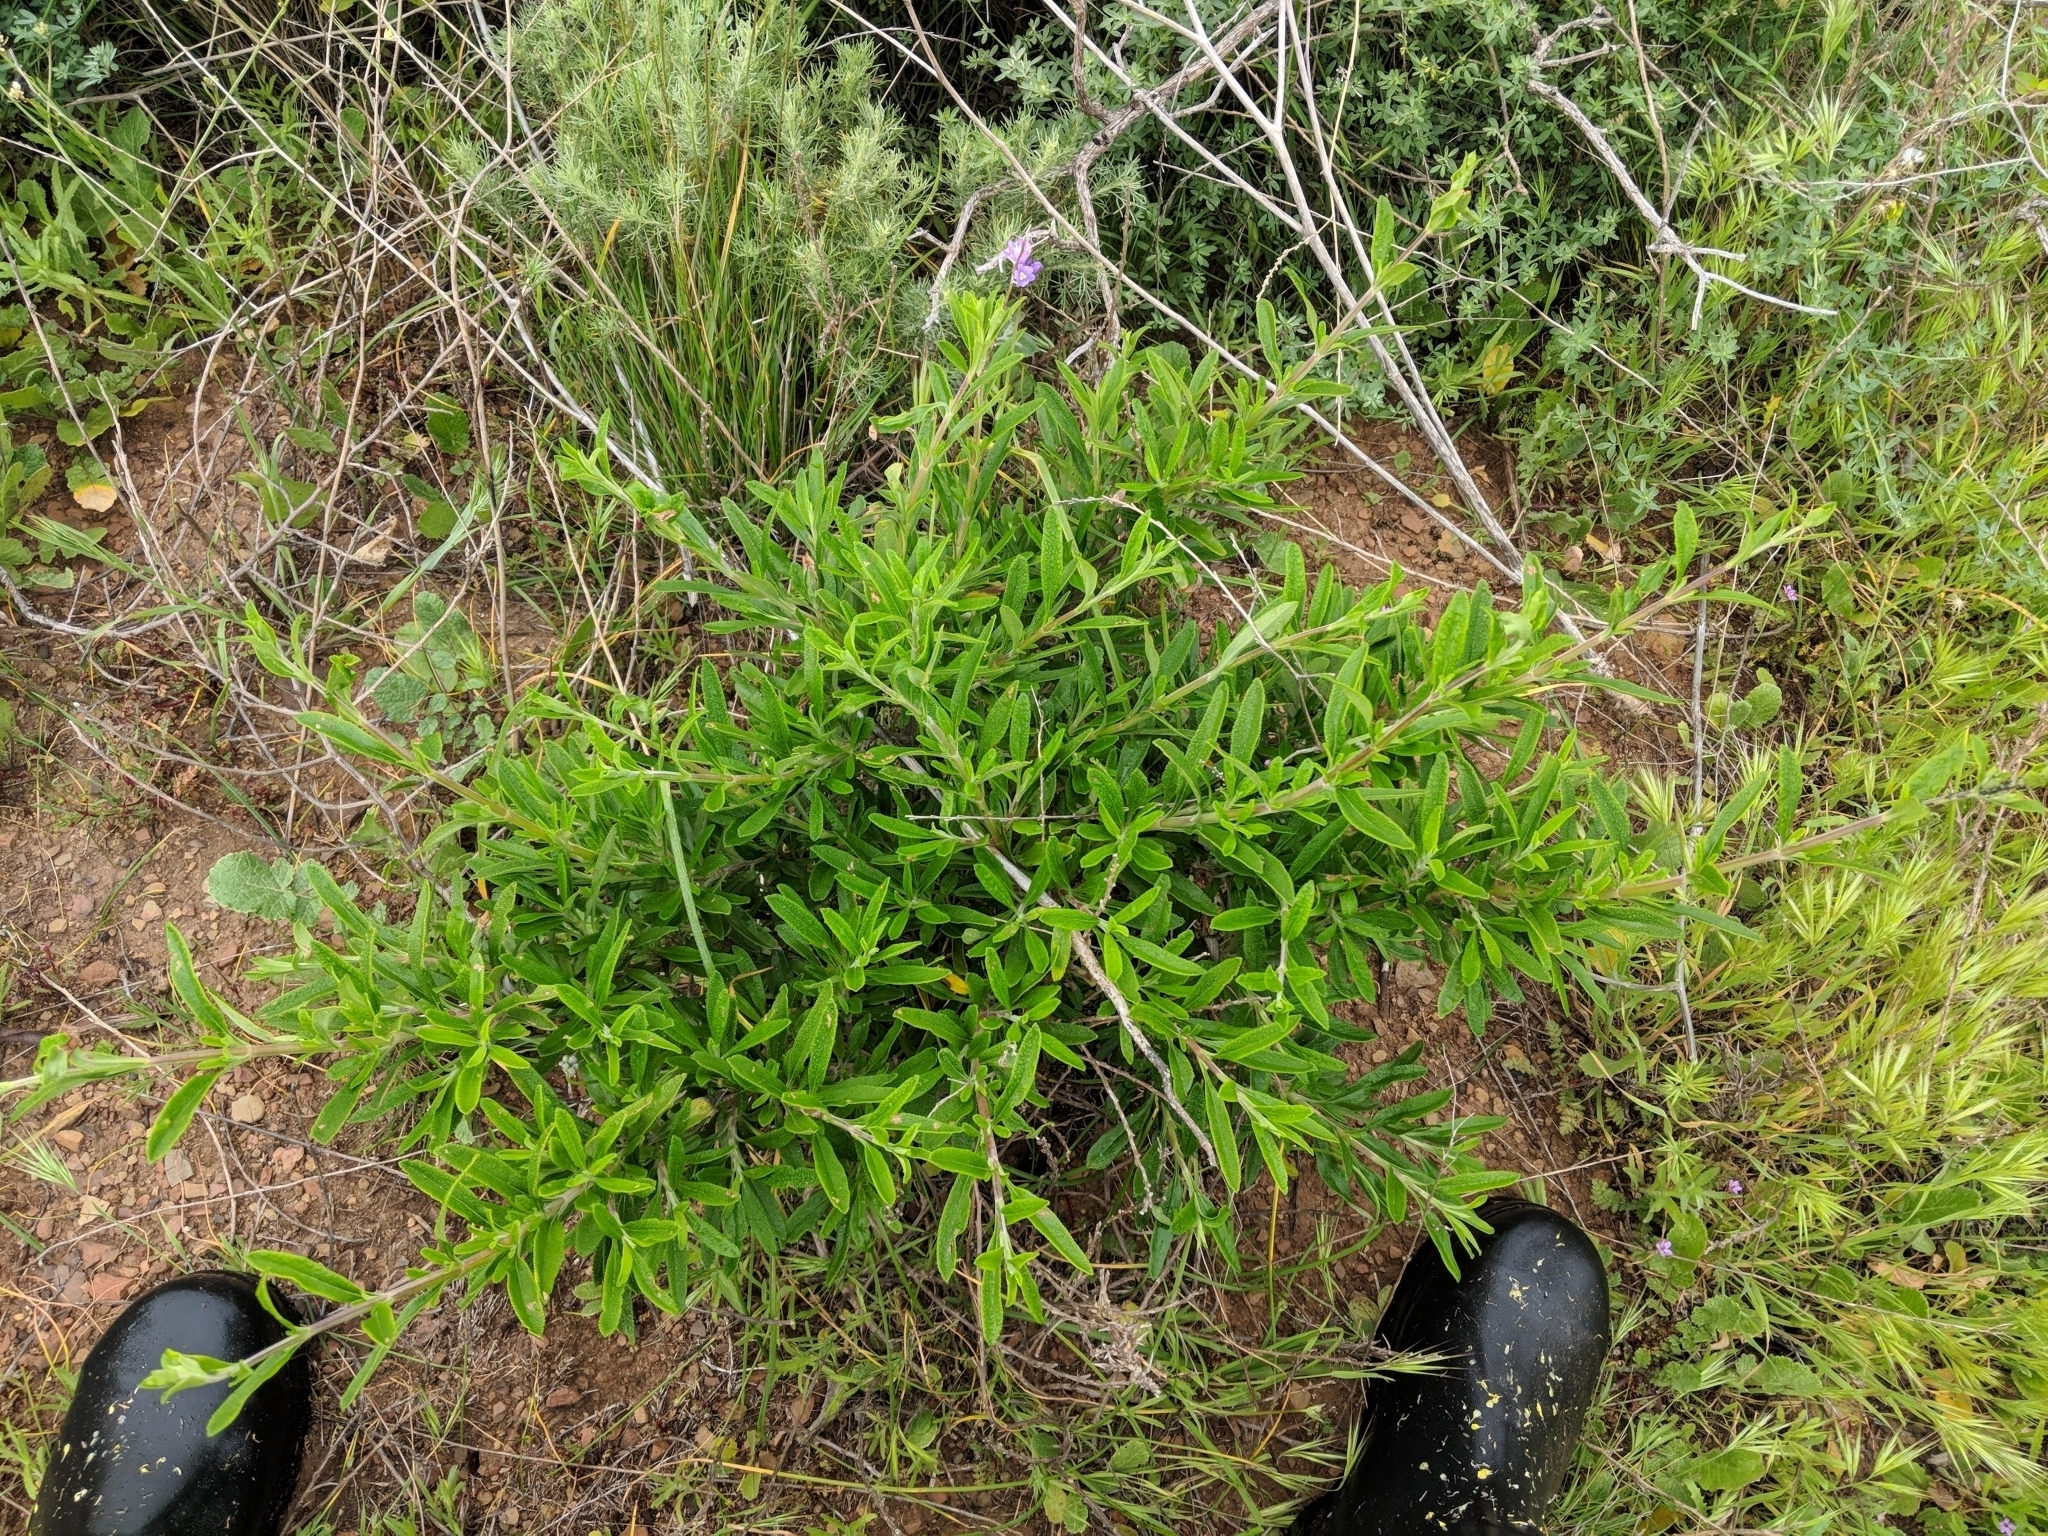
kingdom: Plantae
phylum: Tracheophyta
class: Magnoliopsida
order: Lamiales
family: Lamiaceae
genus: Salvia
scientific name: Salvia mellifera
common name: Black sage
